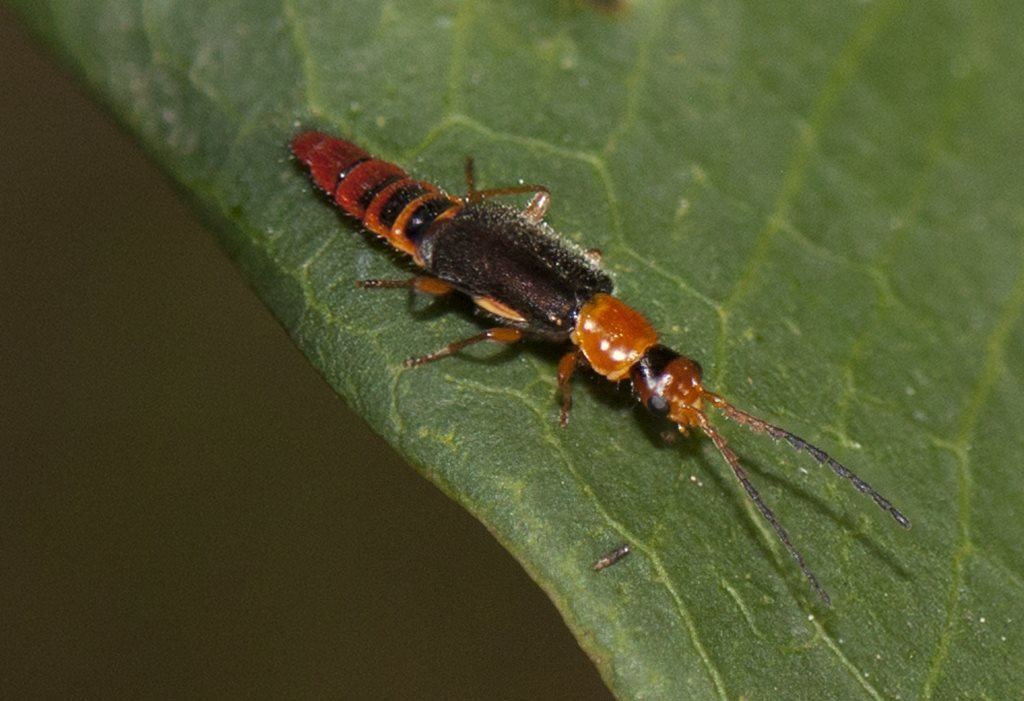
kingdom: Animalia
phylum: Arthropoda
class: Insecta
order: Coleoptera
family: Melyridae
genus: Carphurus
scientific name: Carphurus
